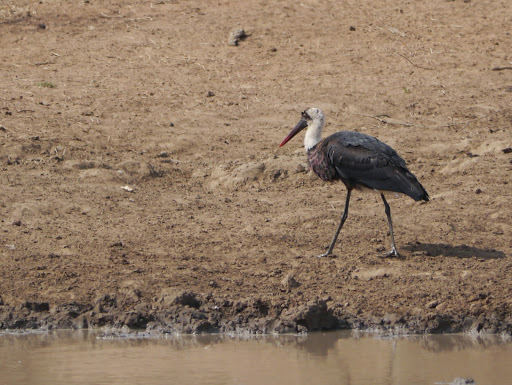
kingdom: Animalia
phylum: Chordata
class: Aves
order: Ciconiiformes
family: Ciconiidae
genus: Ciconia
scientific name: Ciconia microscelis
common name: African woollyneck
